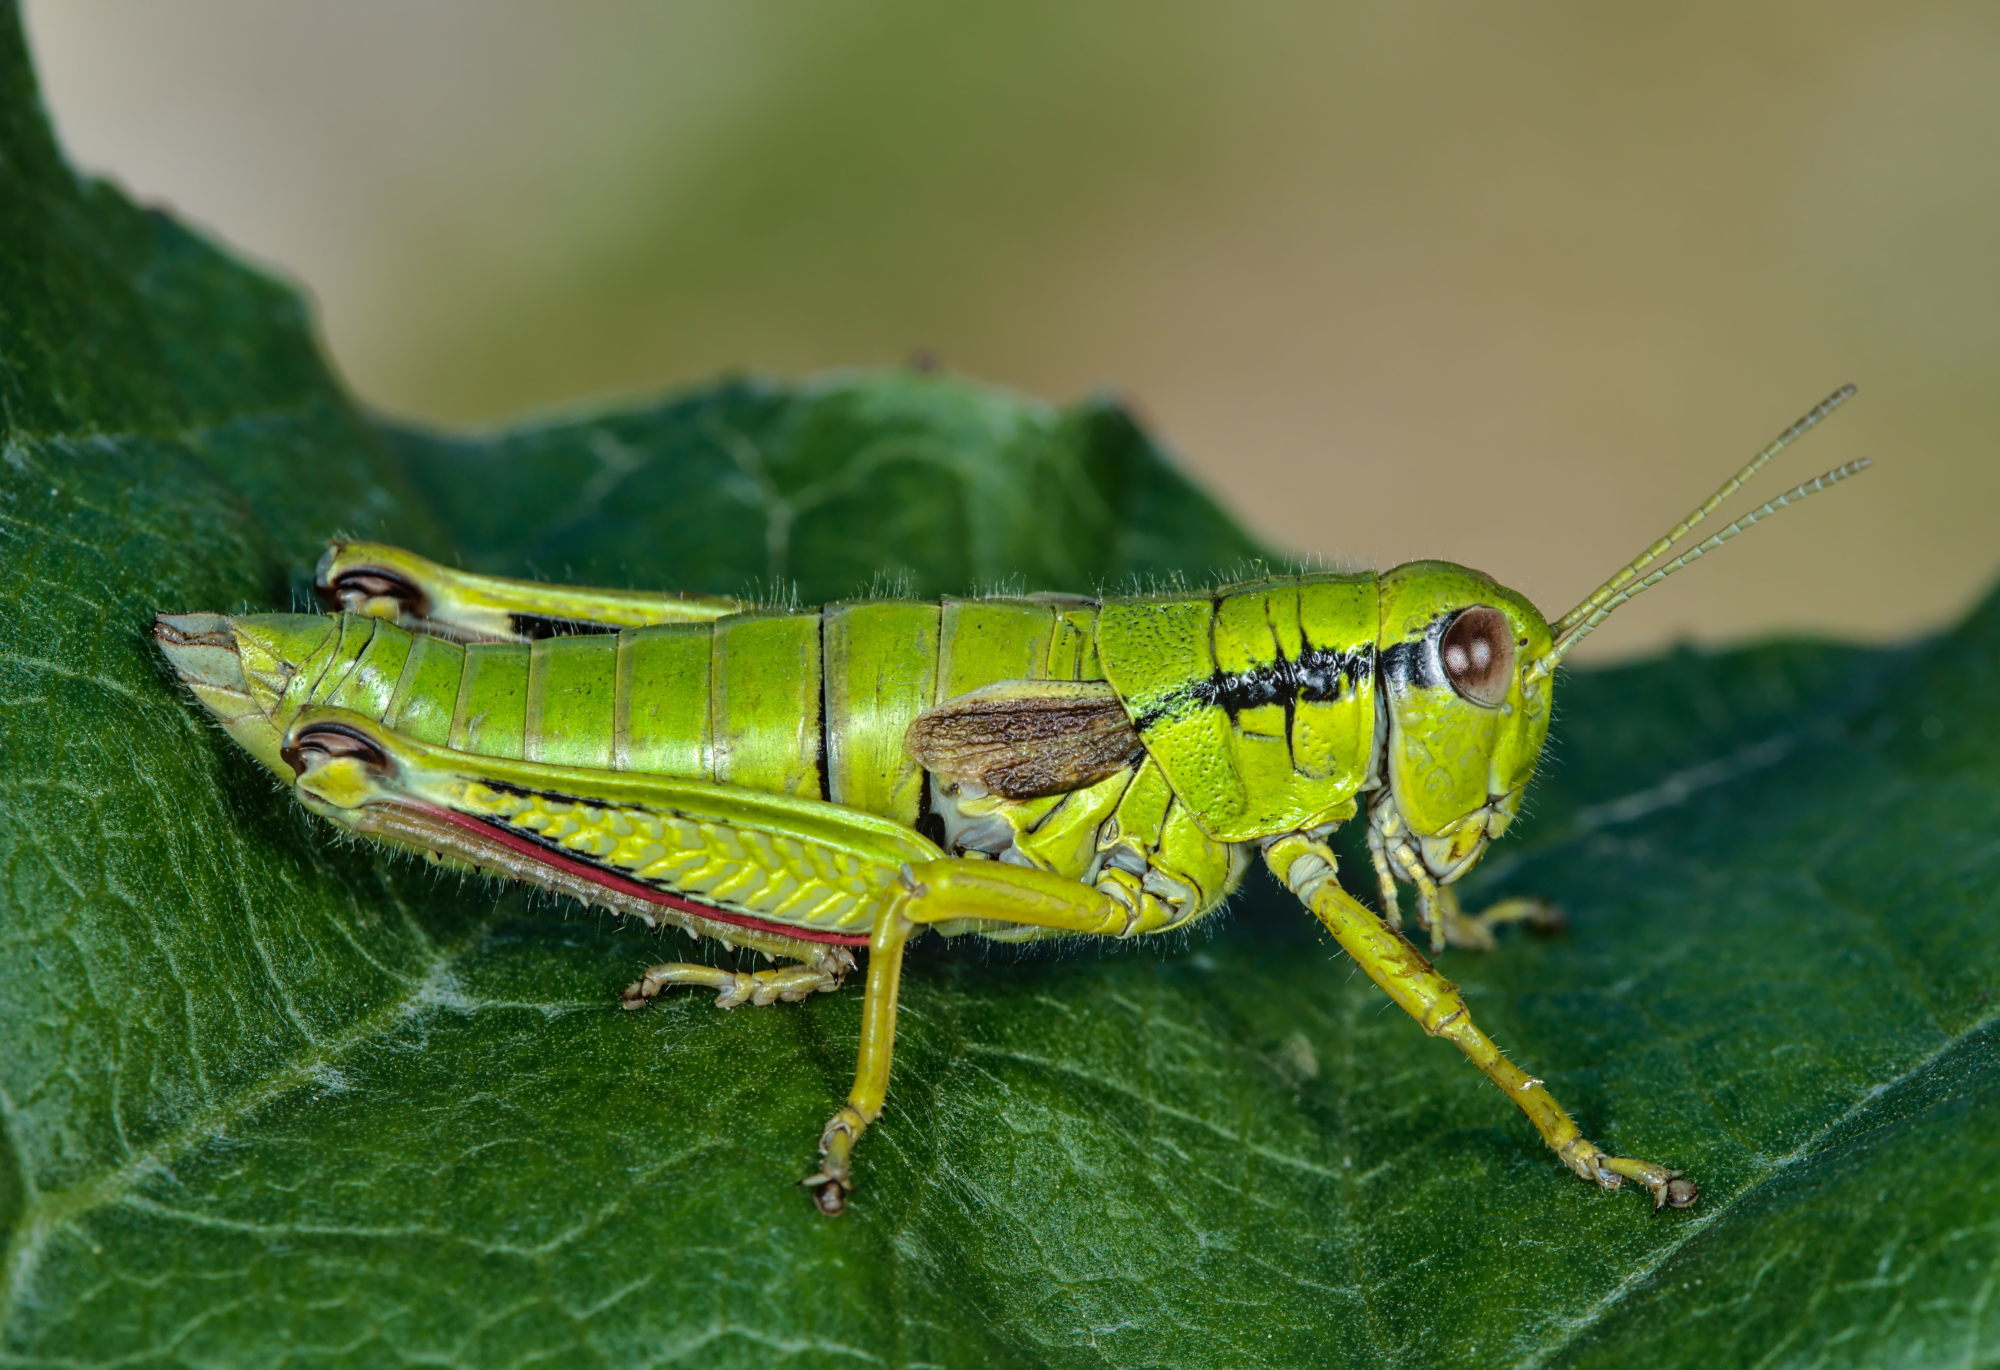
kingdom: Animalia
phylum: Arthropoda
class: Insecta
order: Orthoptera
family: Acrididae
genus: Miramella
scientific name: Miramella alpina
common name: Green mountain grasshopper
